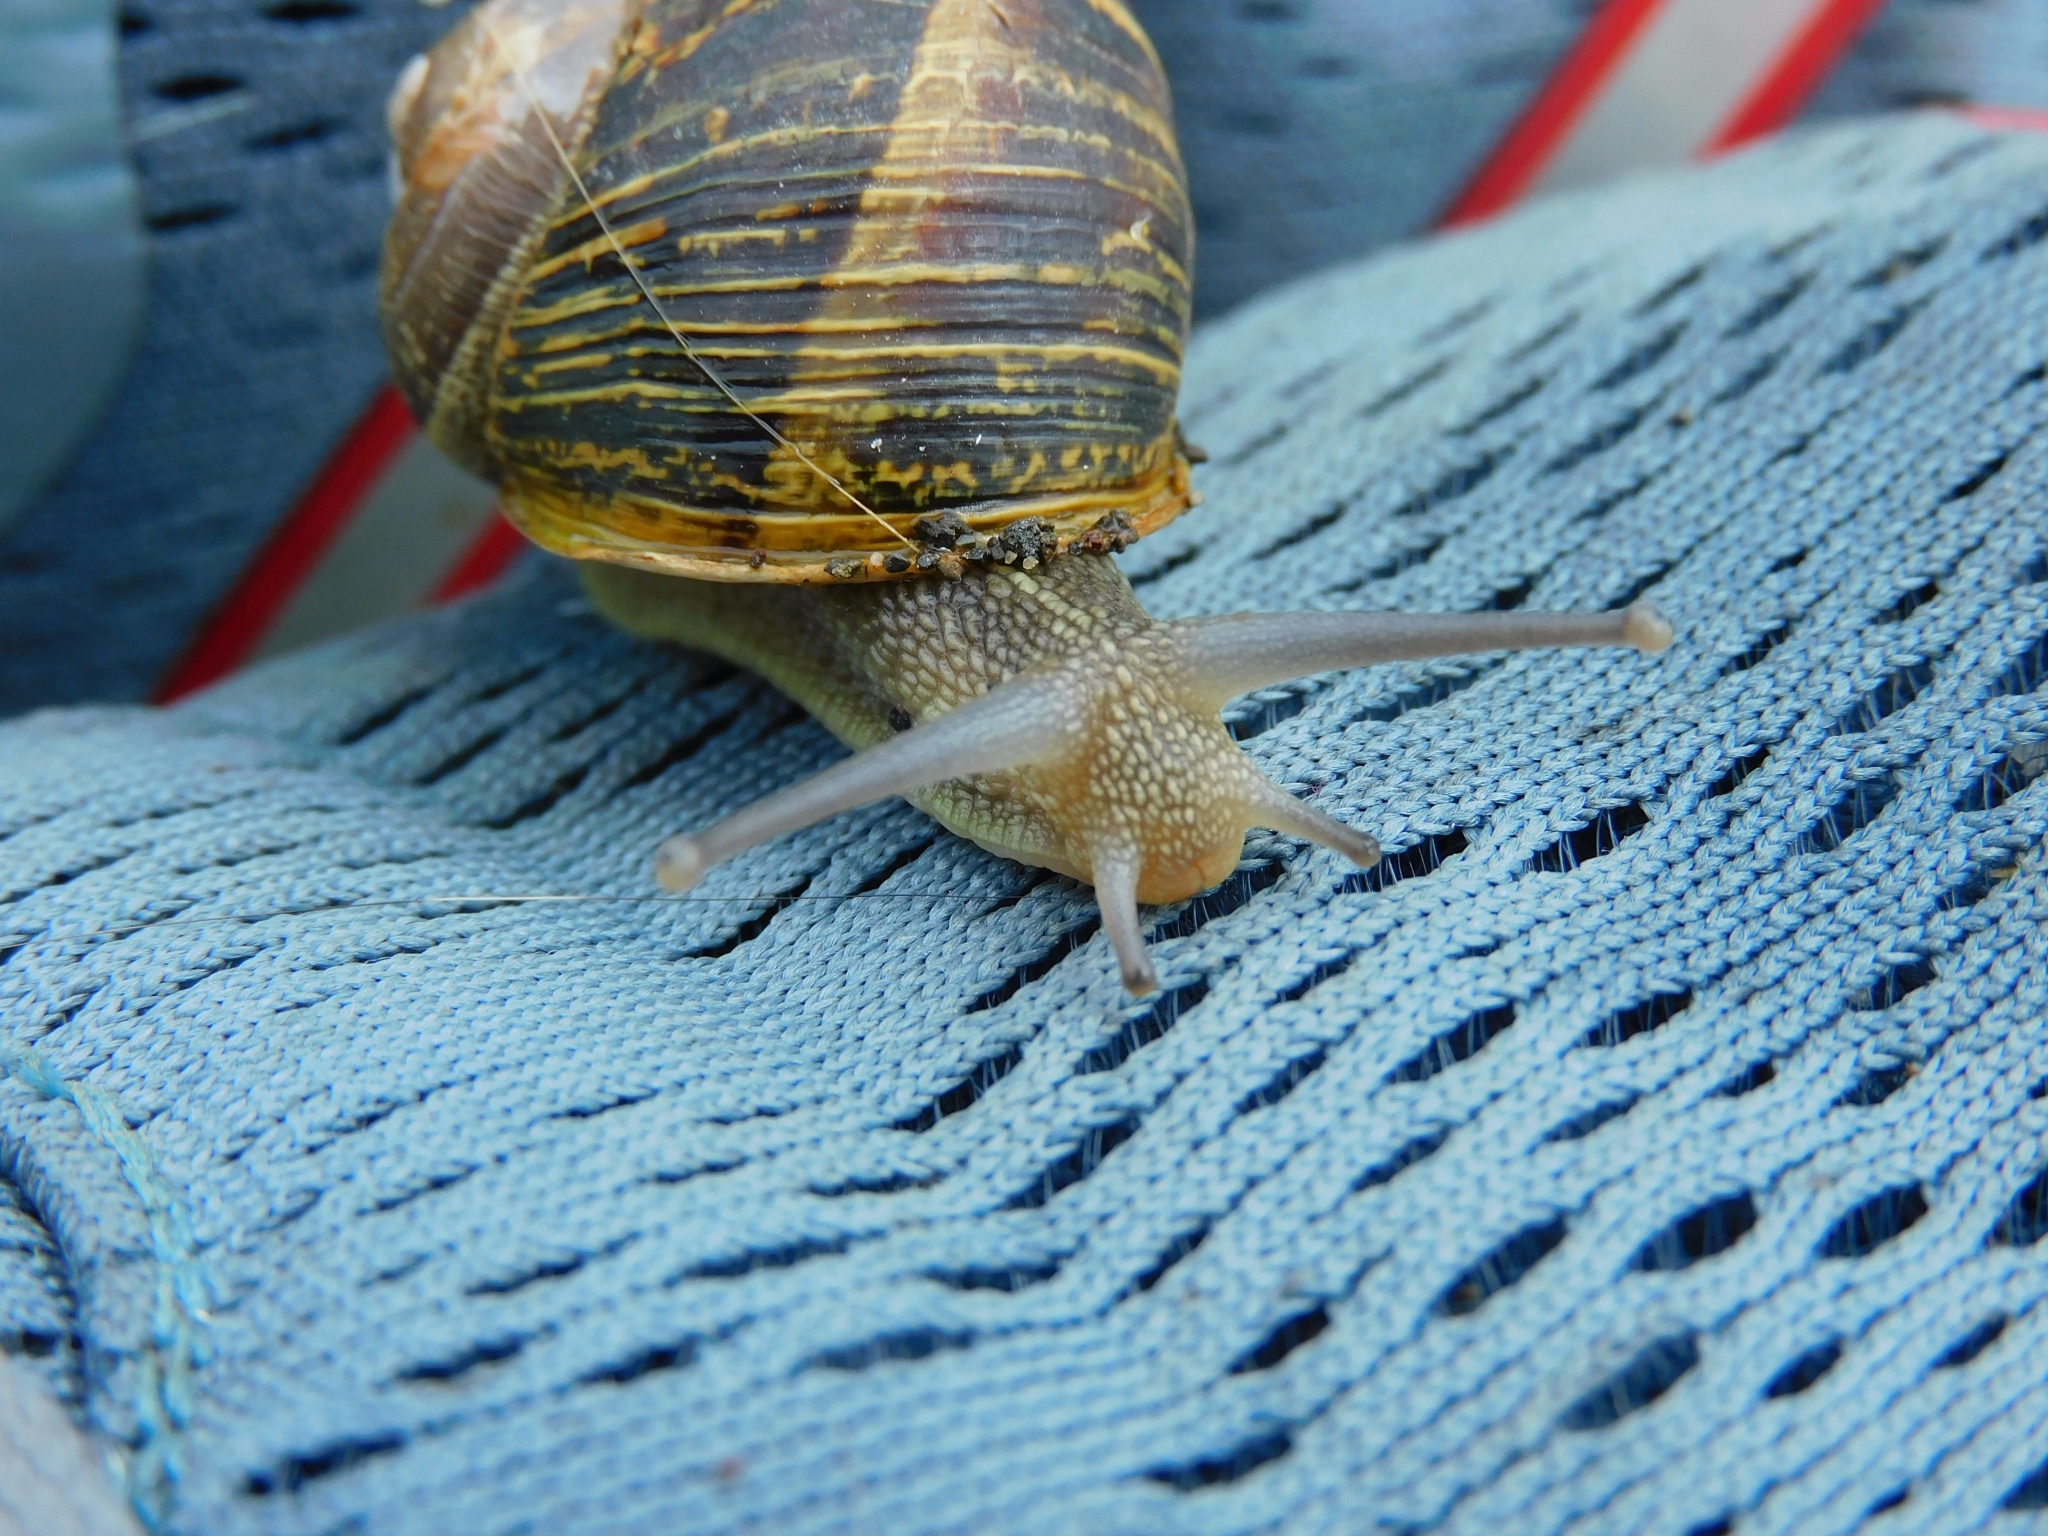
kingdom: Animalia
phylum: Mollusca
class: Gastropoda
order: Stylommatophora
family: Helicidae
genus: Cornu
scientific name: Cornu aspersum
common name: Brown garden snail
